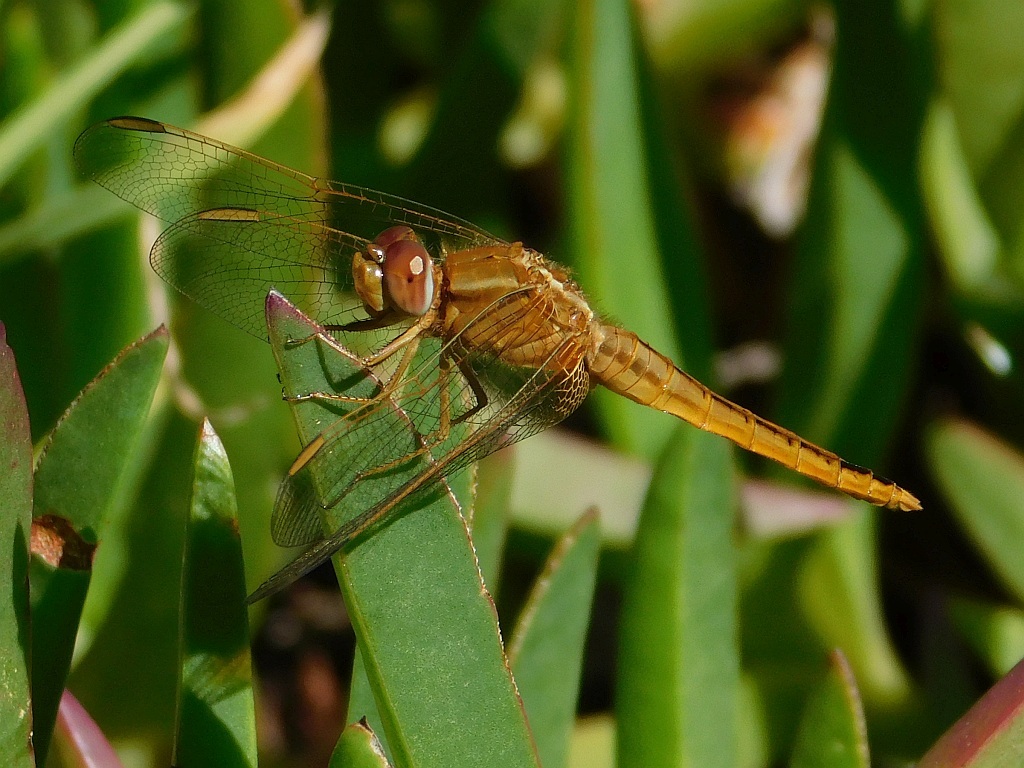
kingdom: Animalia
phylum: Arthropoda
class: Insecta
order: Odonata
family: Libellulidae
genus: Crocothemis
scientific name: Crocothemis erythraea
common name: Scarlet dragonfly
